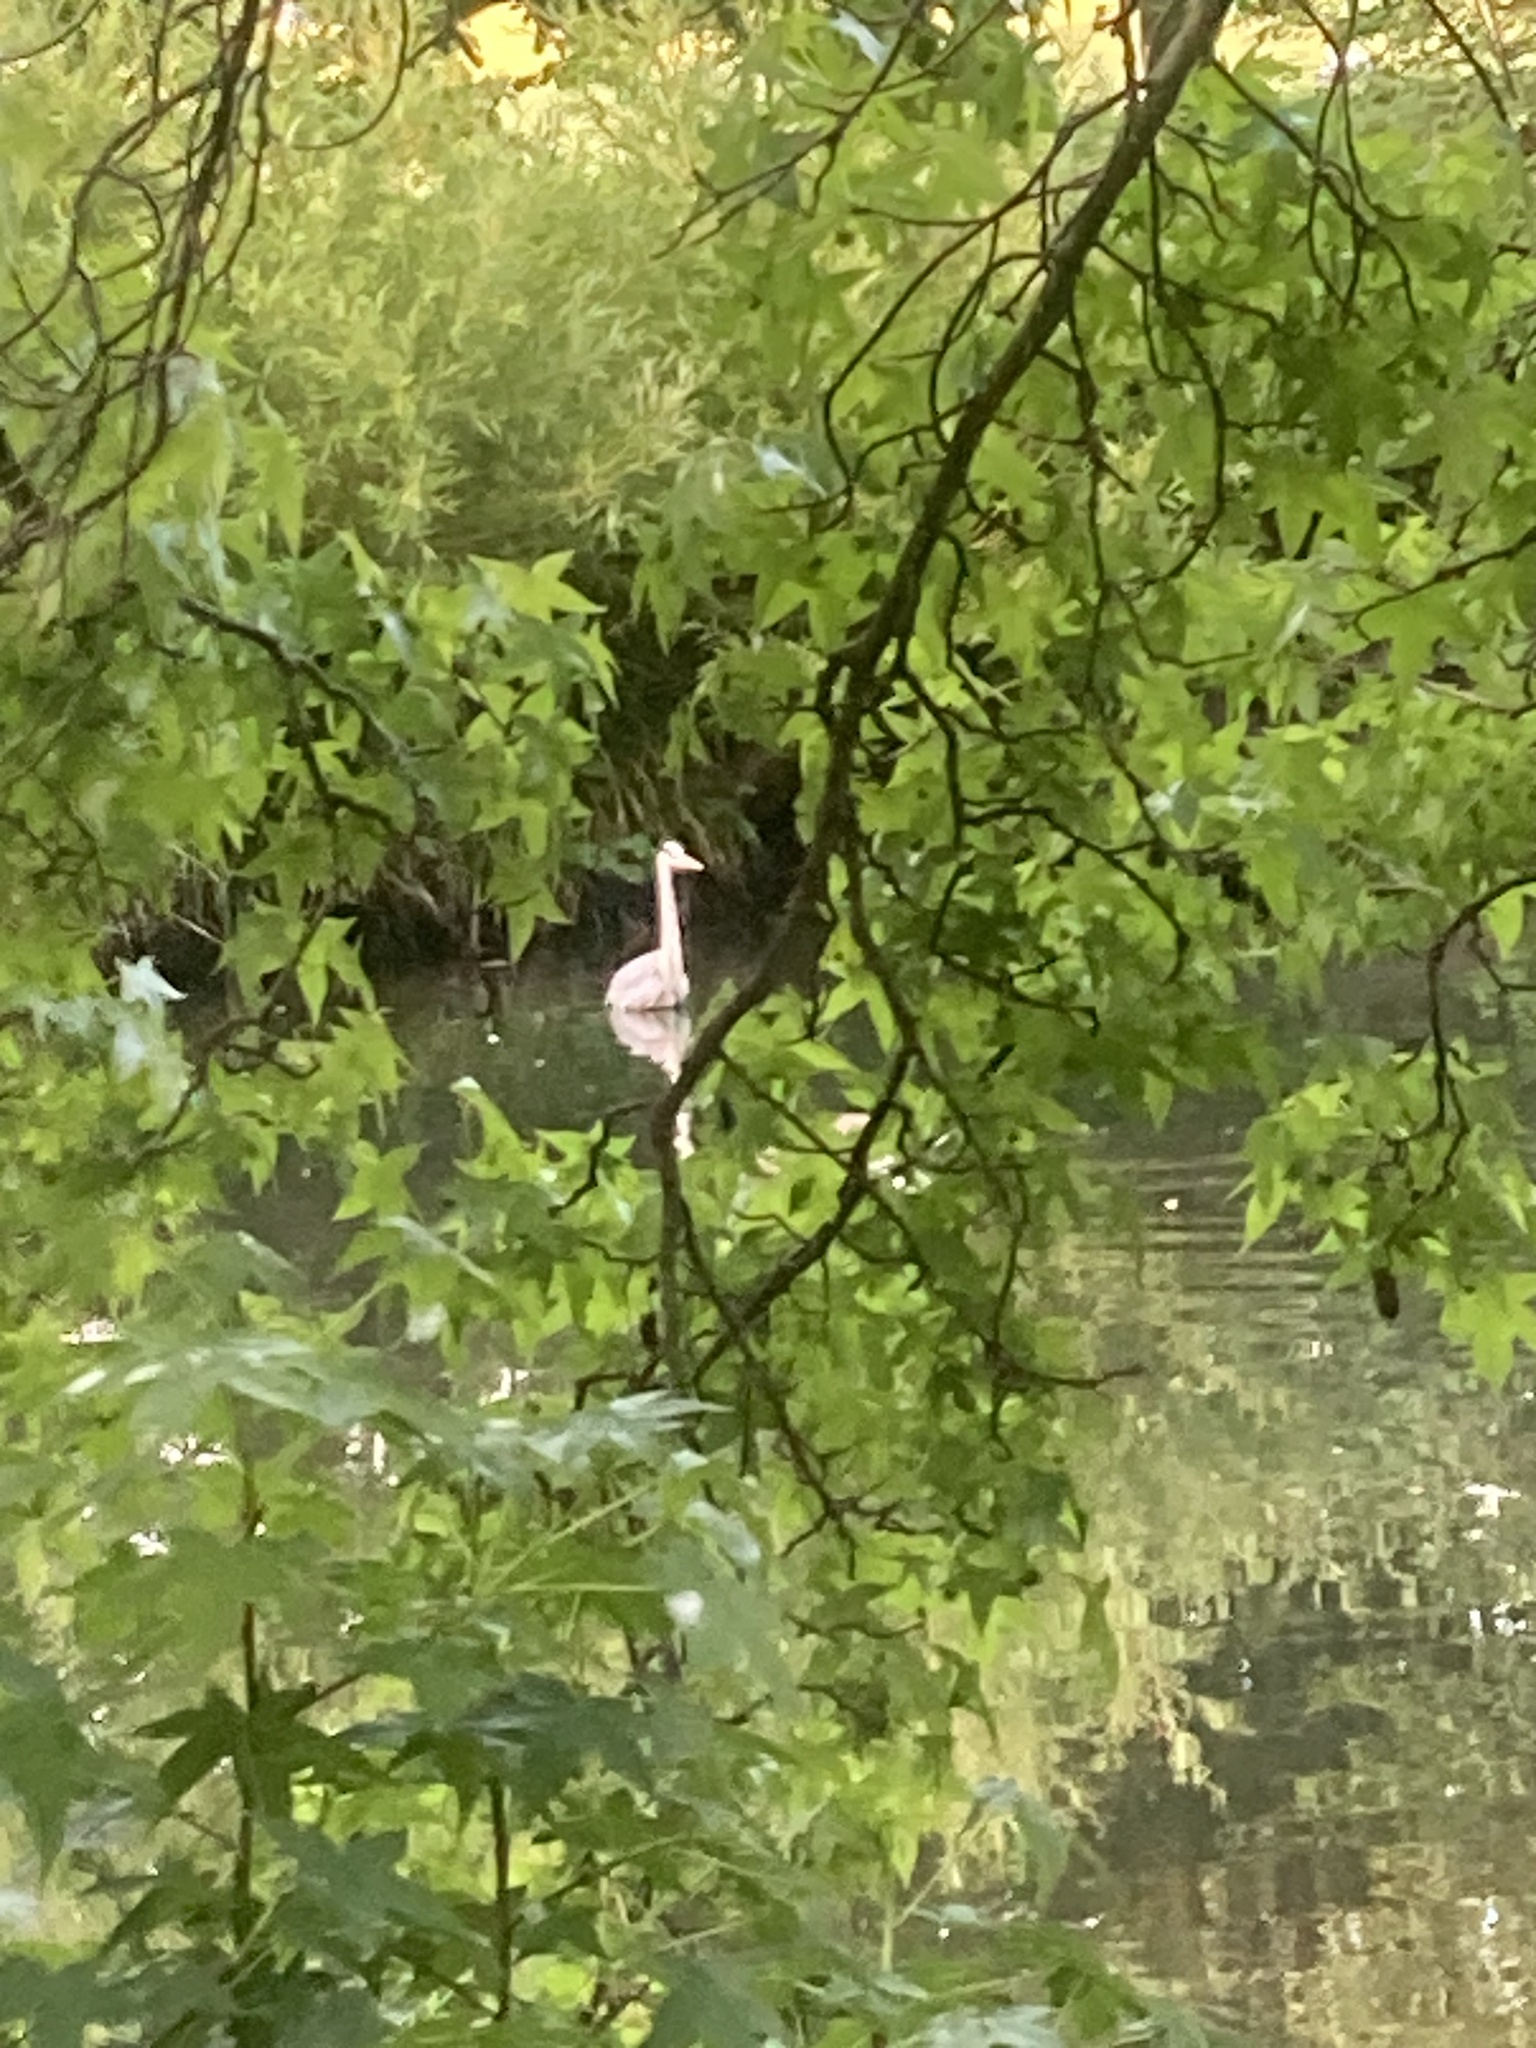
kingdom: Animalia
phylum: Chordata
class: Aves
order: Pelecaniformes
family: Ardeidae
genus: Ardea
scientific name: Ardea cinerea
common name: Grey heron
